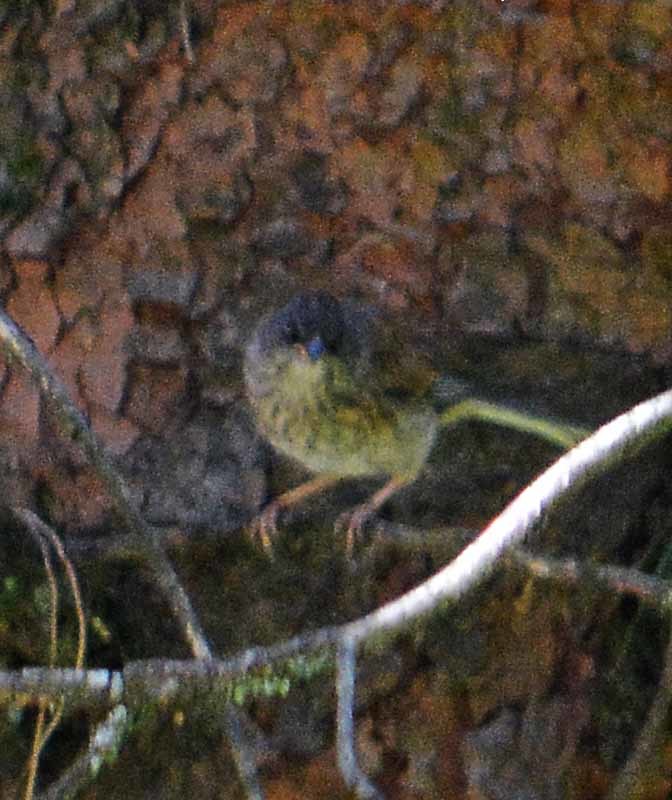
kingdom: Animalia
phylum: Chordata
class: Aves
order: Passeriformes
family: Passerellidae
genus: Junco
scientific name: Junco phaeonotus
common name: Yellow-eyed junco
